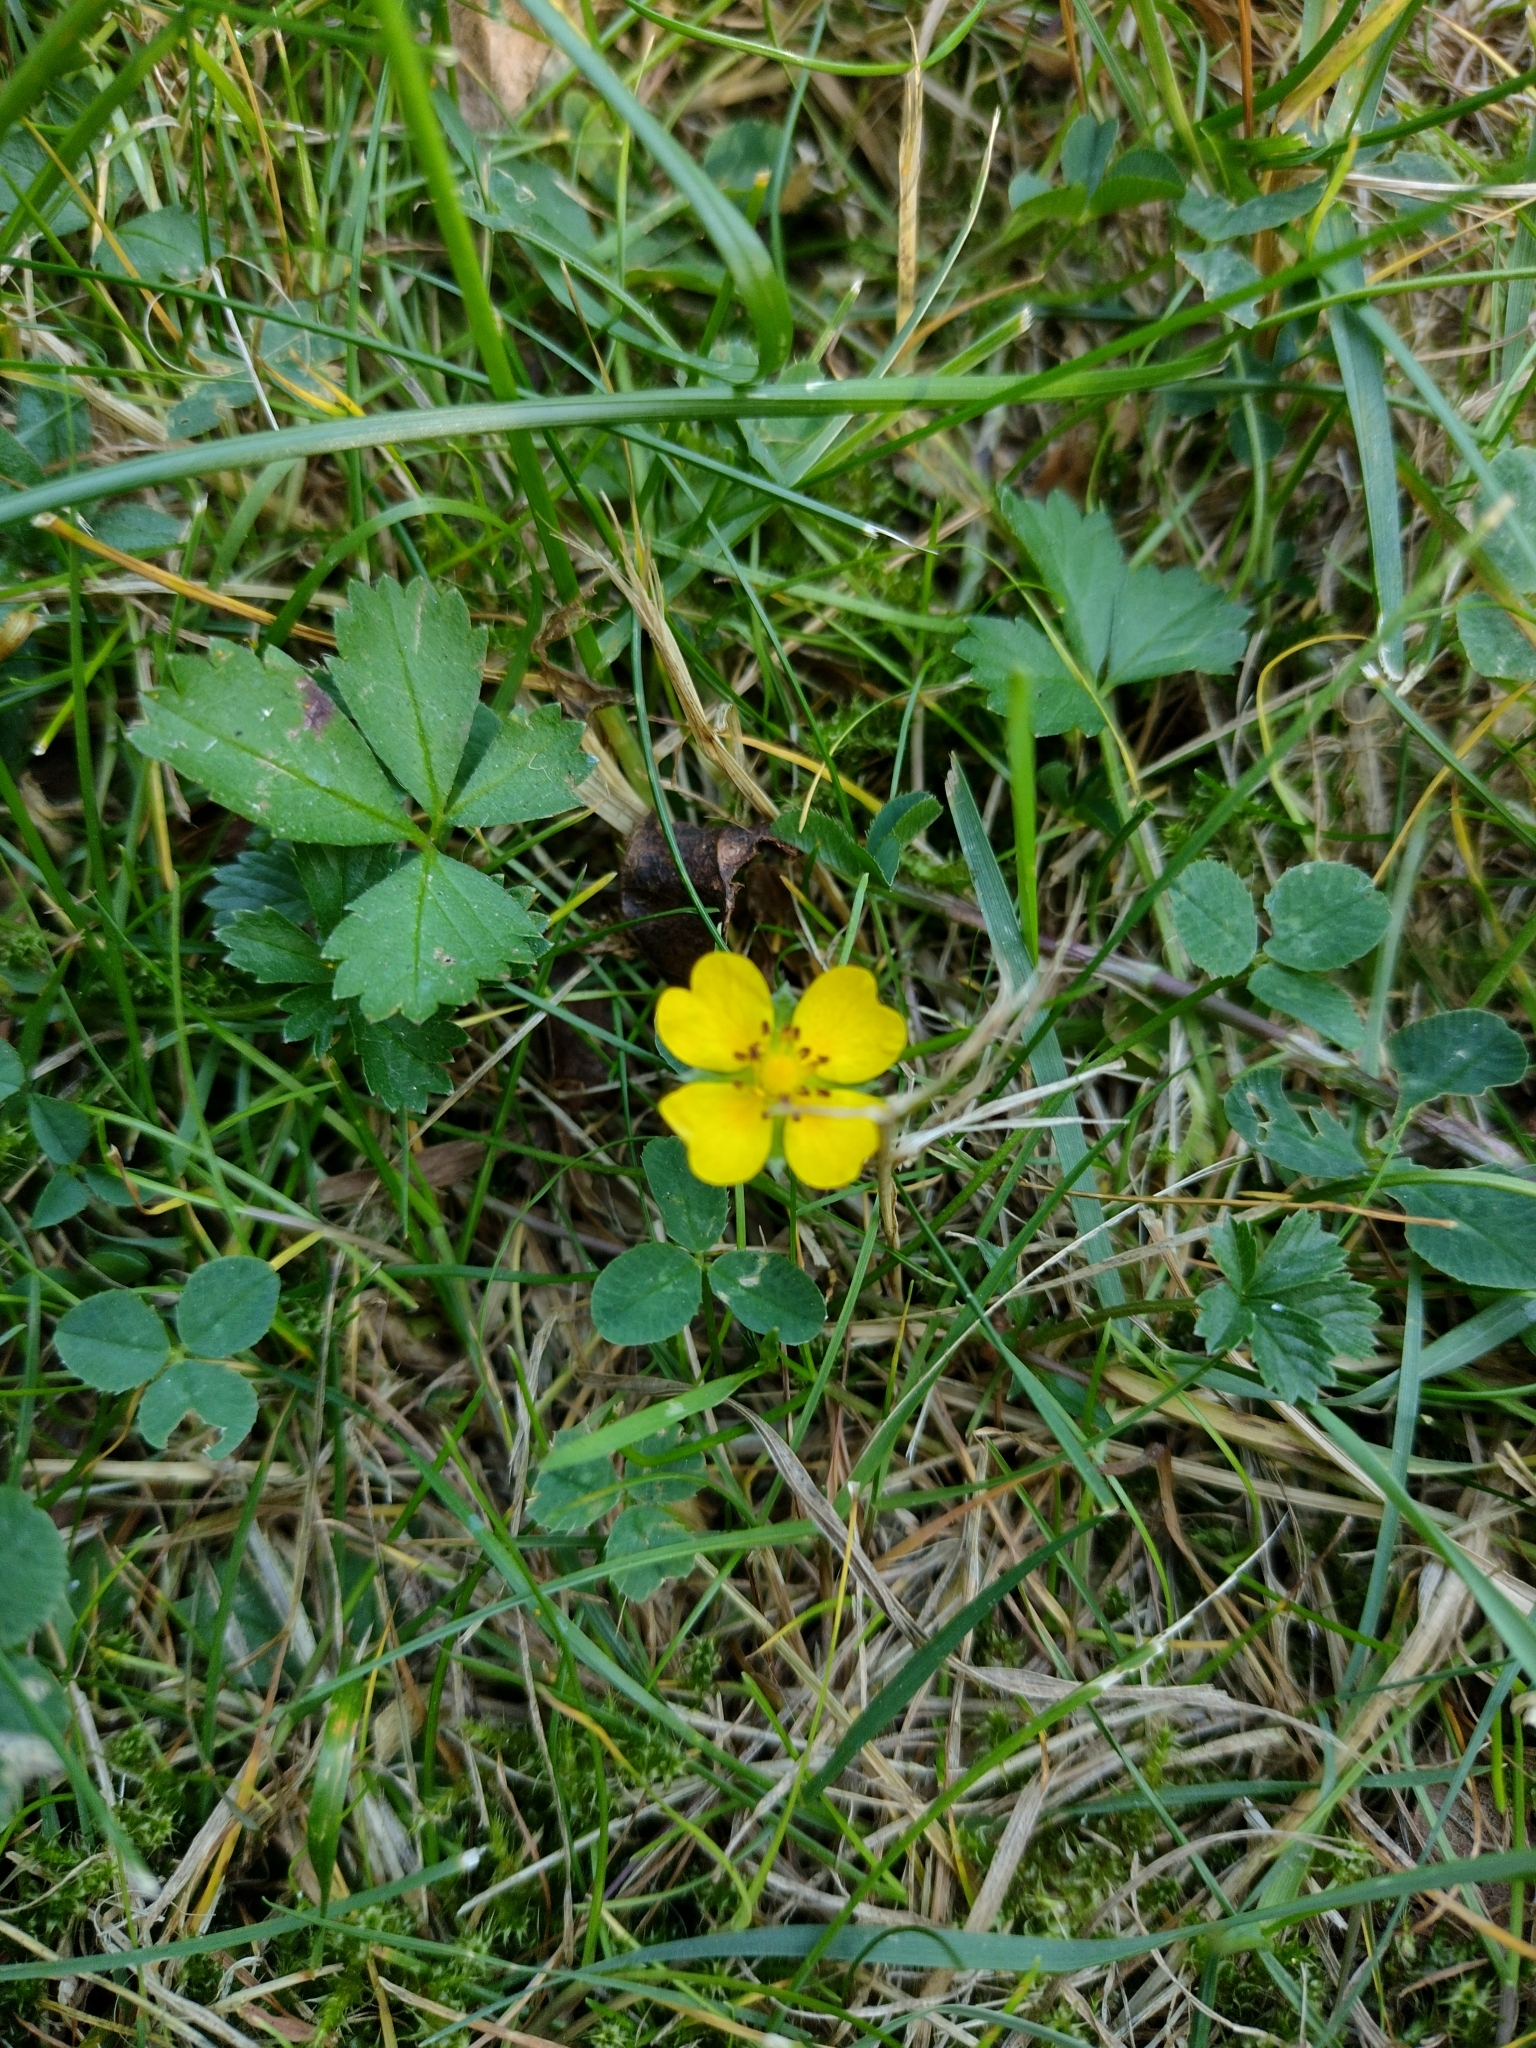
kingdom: Plantae
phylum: Tracheophyta
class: Magnoliopsida
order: Rosales
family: Rosaceae
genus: Potentilla
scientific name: Potentilla reptans
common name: Creeping cinquefoil
